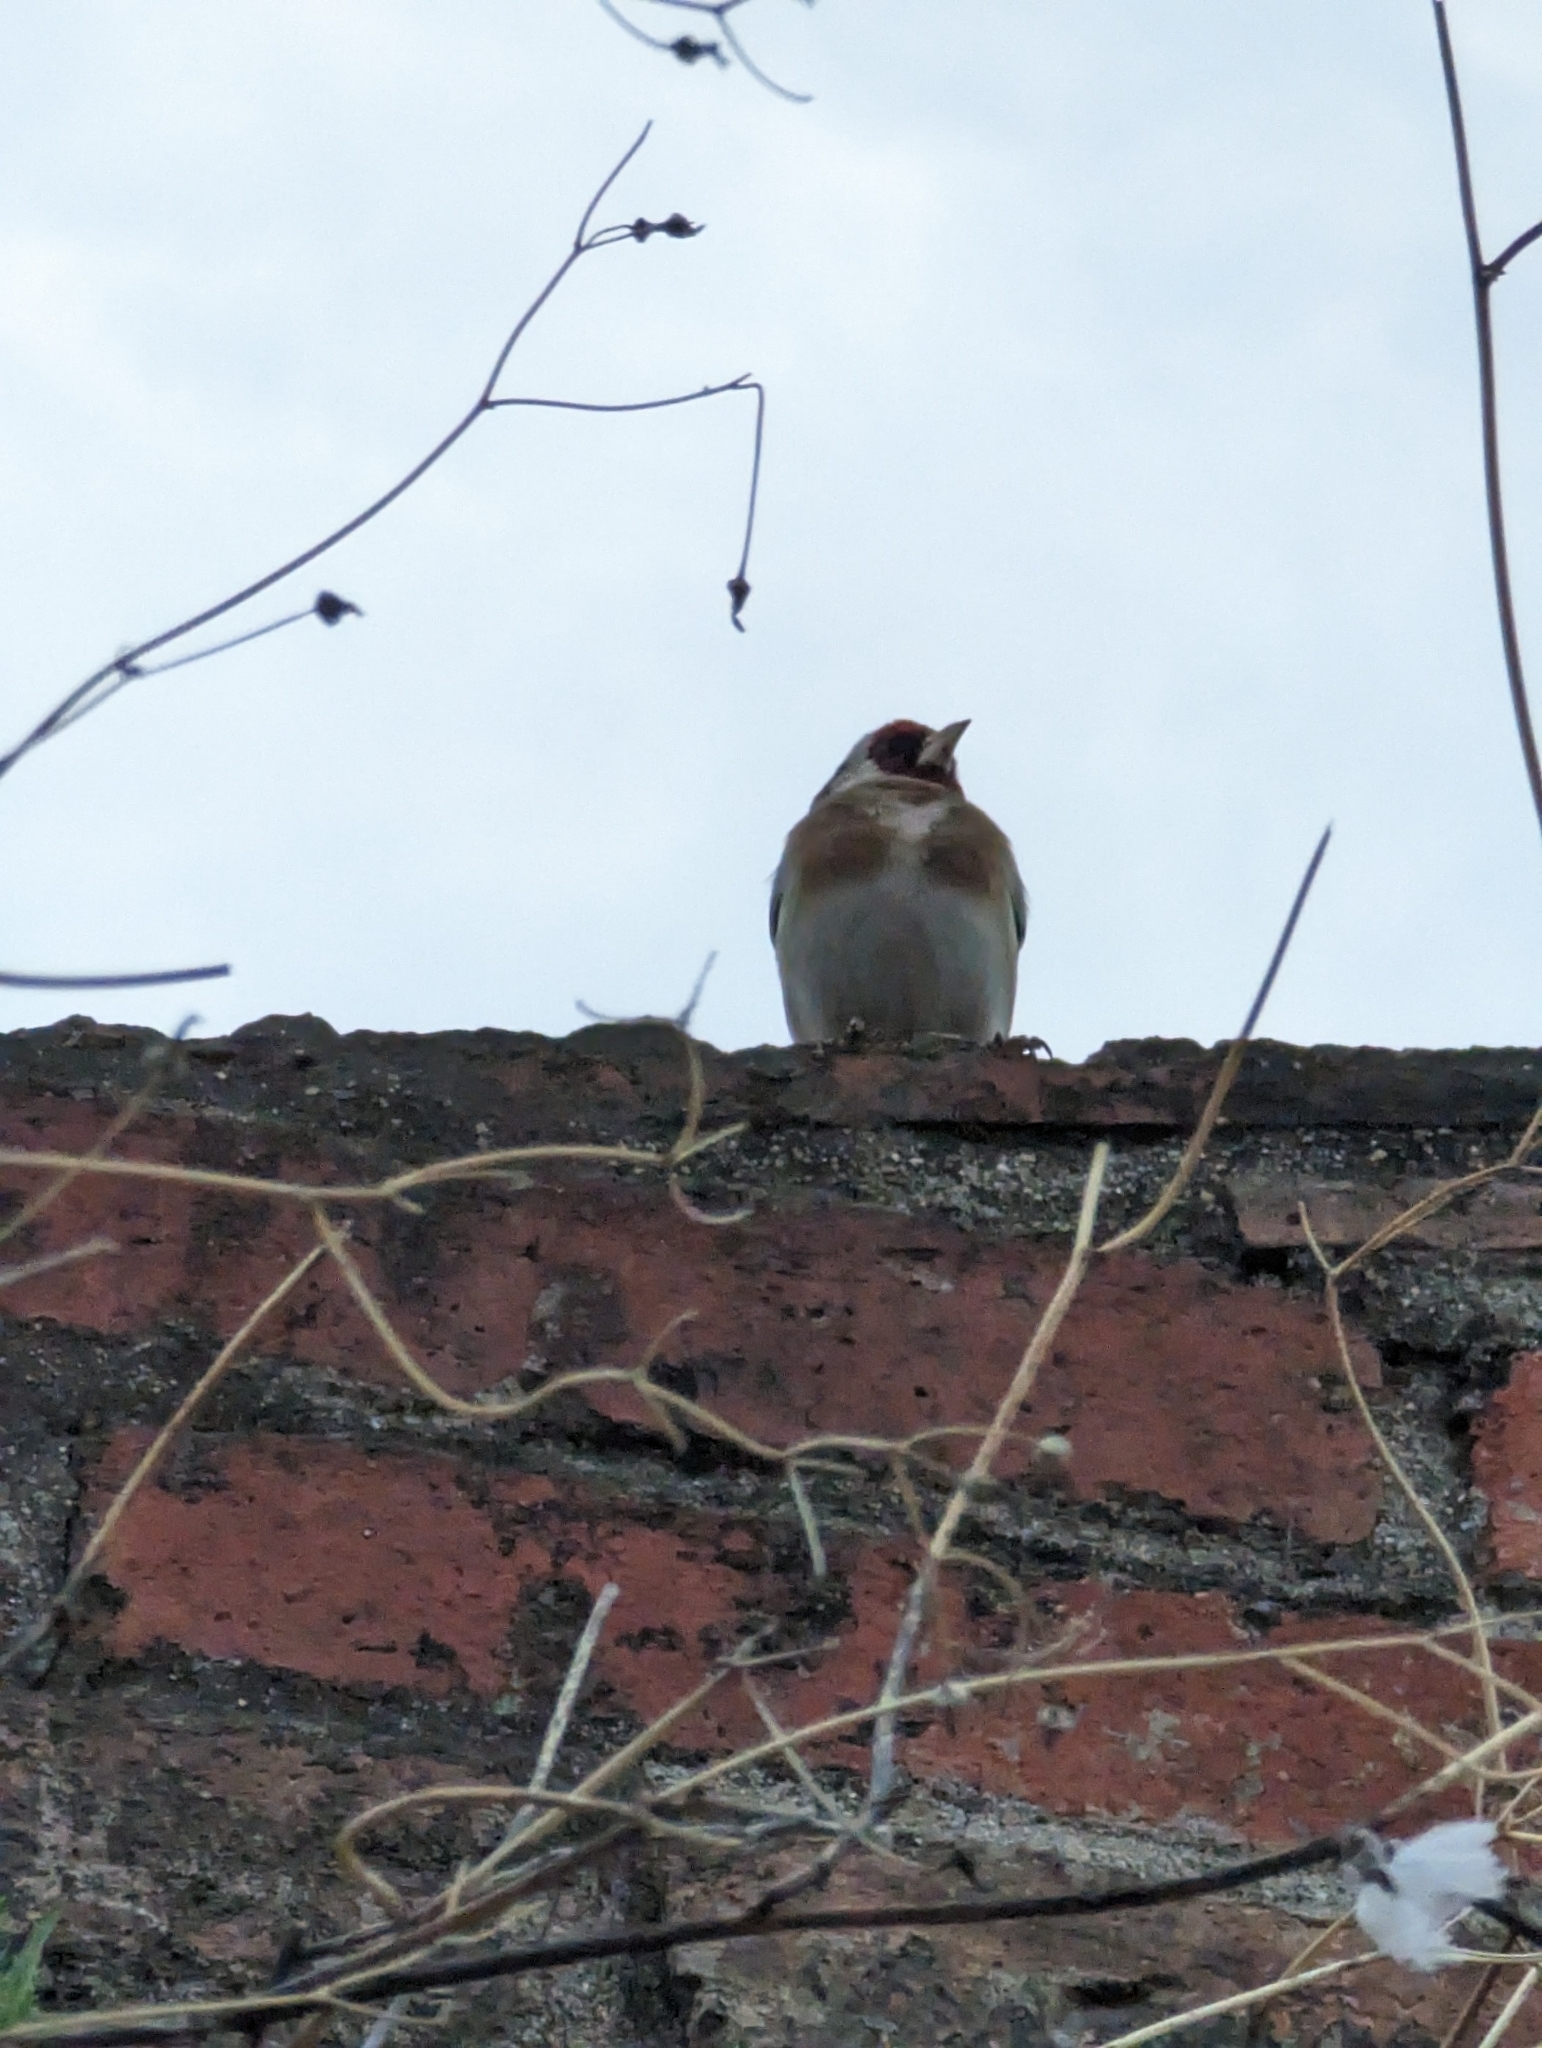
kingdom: Animalia
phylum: Chordata
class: Aves
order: Passeriformes
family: Fringillidae
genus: Carduelis
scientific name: Carduelis carduelis
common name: European goldfinch
